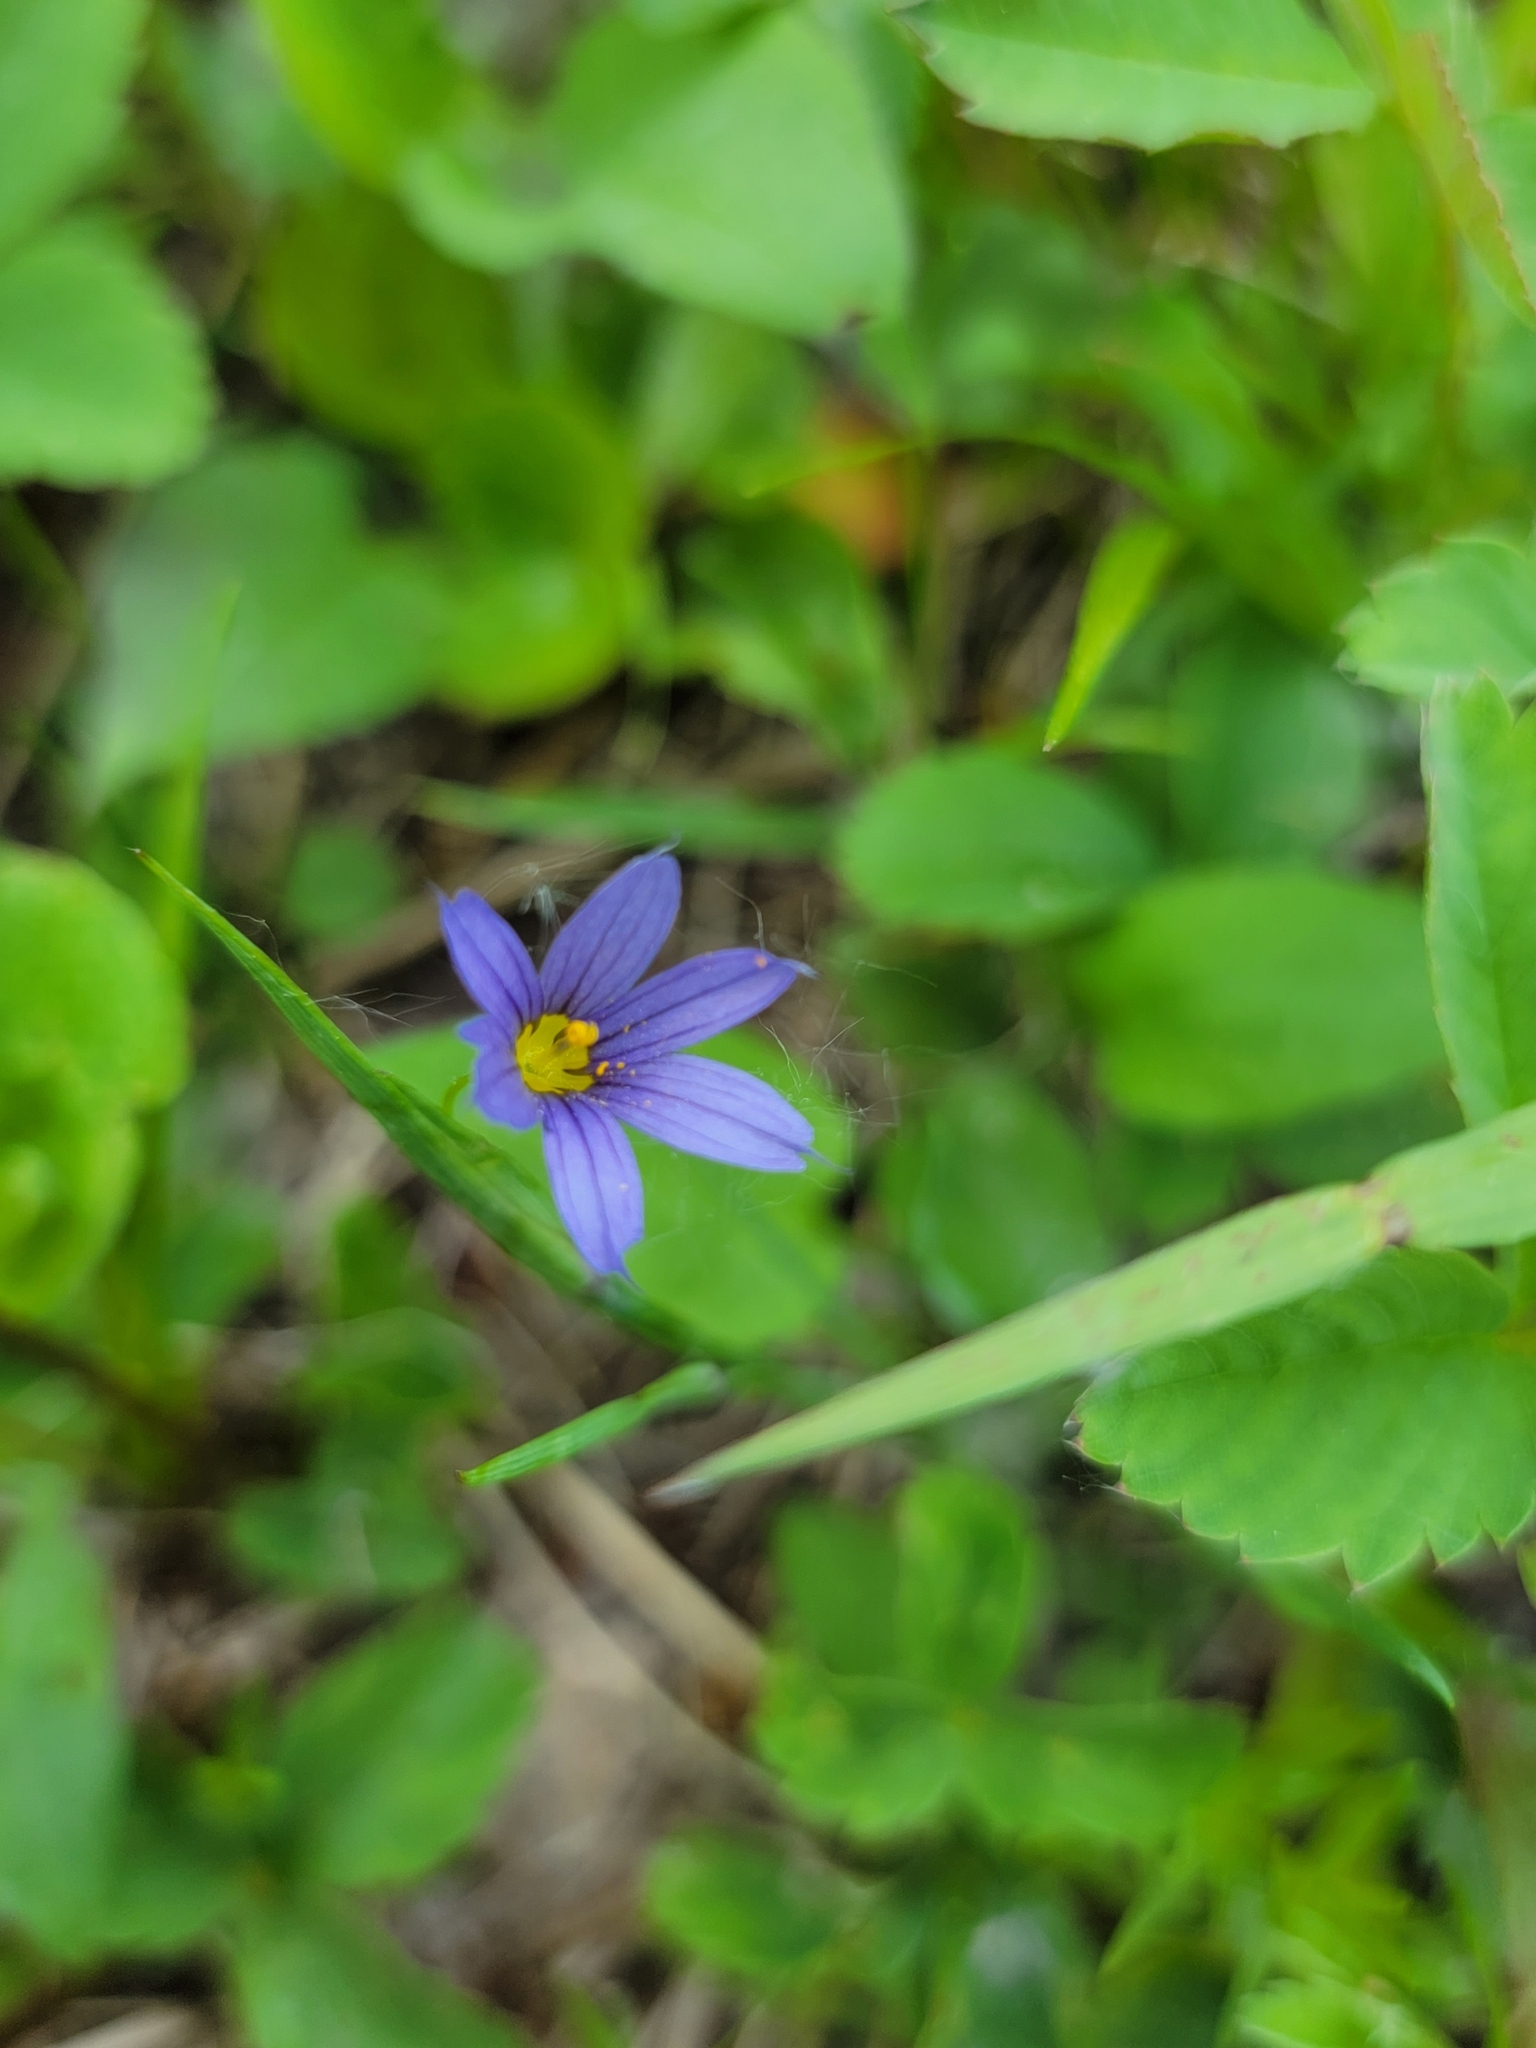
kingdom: Plantae
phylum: Tracheophyta
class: Liliopsida
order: Asparagales
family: Iridaceae
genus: Sisyrinchium
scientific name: Sisyrinchium montanum
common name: American blue-eyed-grass
